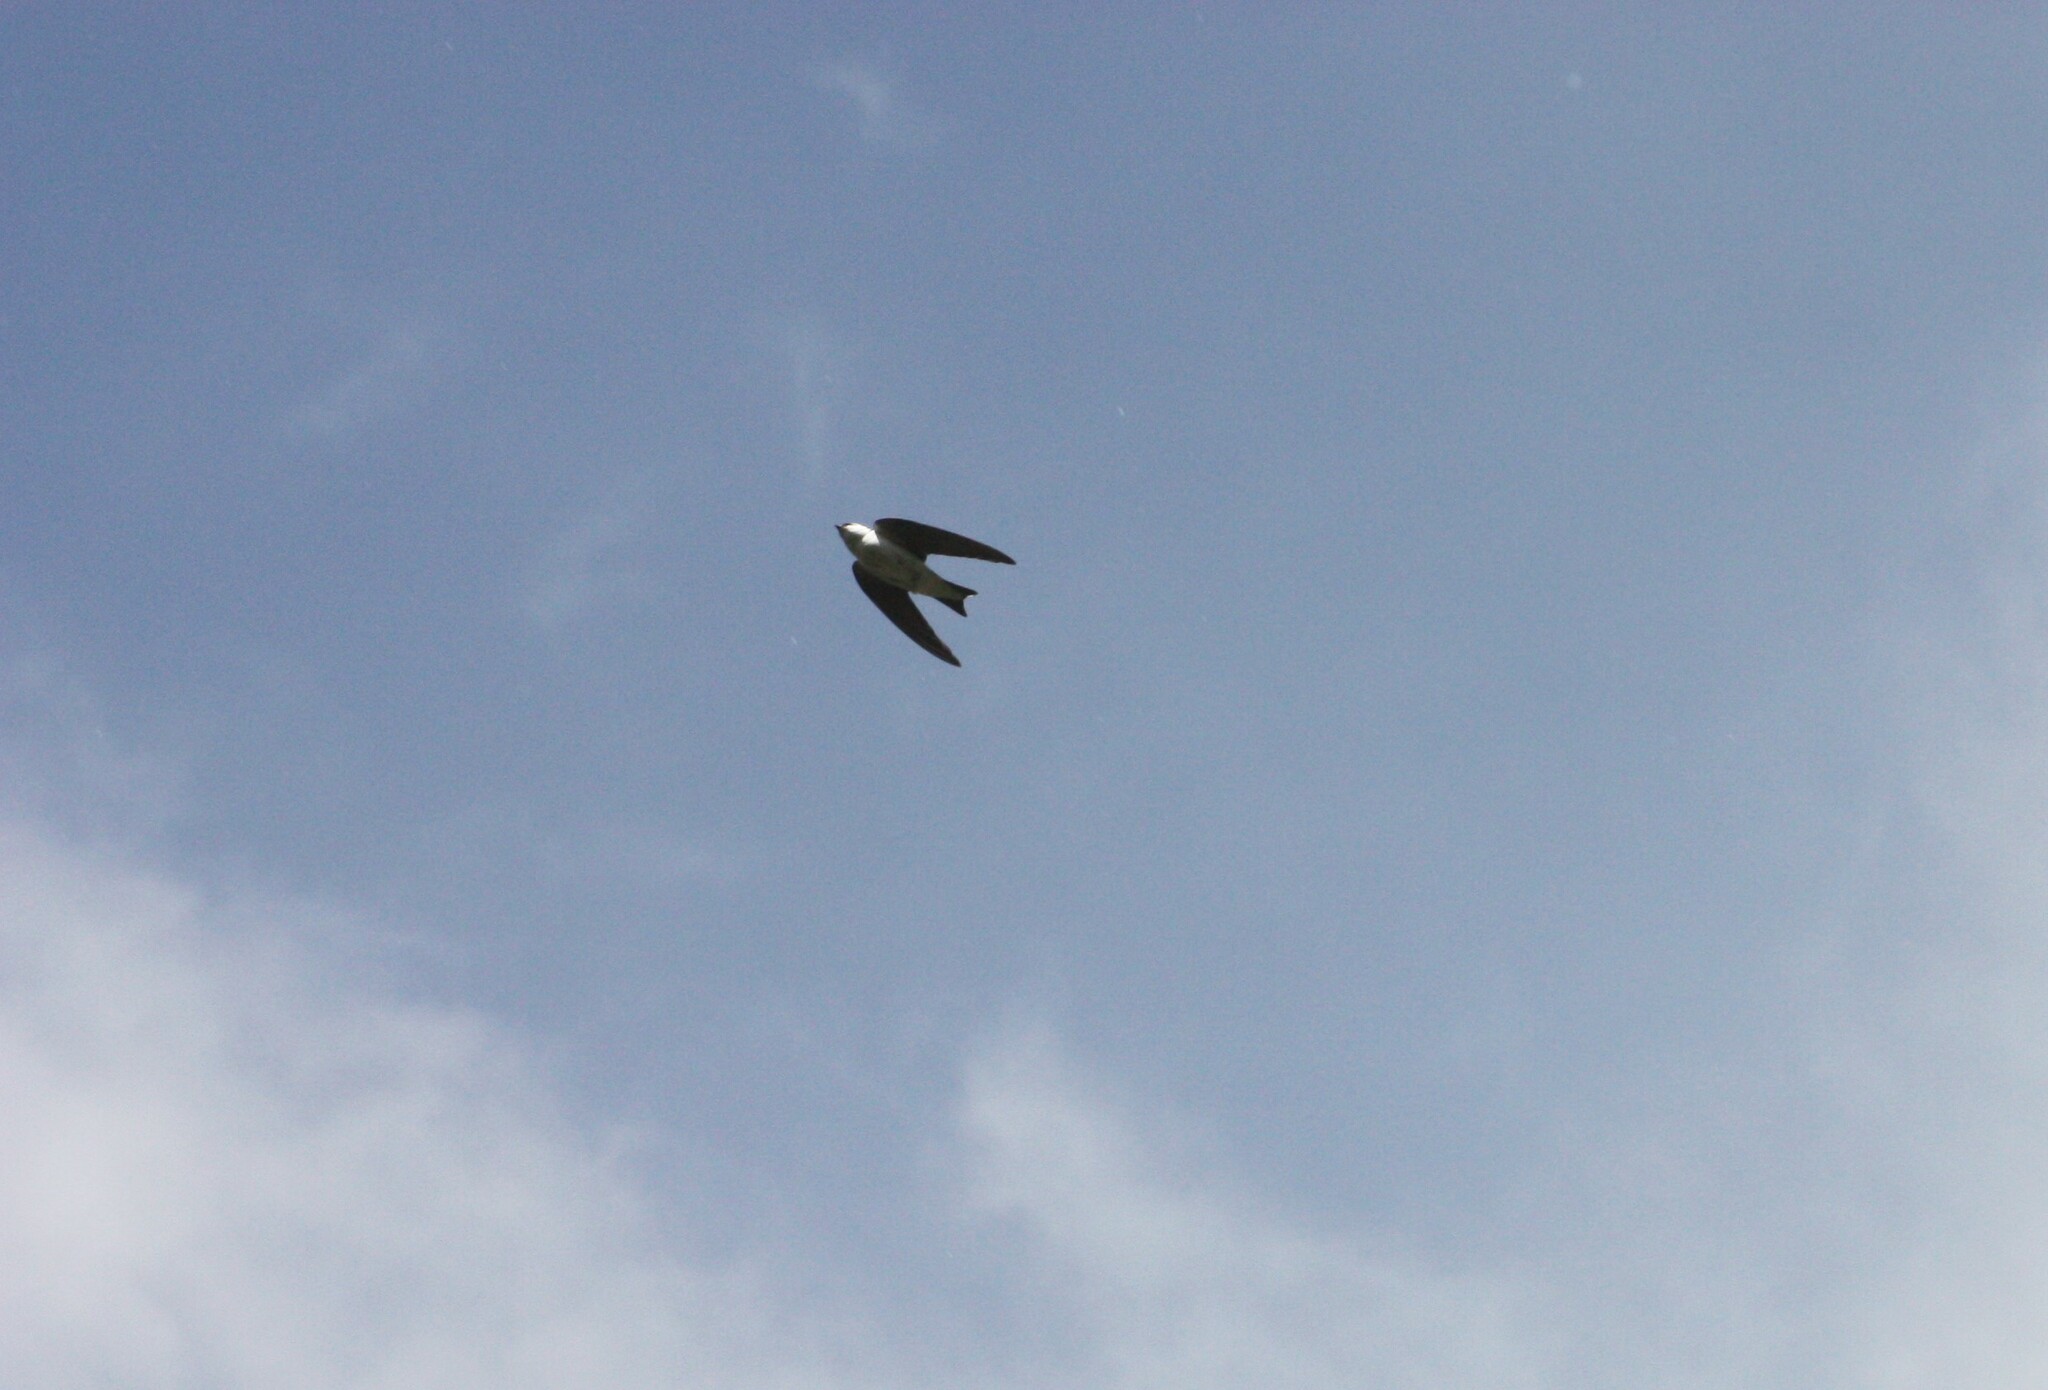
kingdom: Animalia
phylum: Chordata
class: Aves
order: Passeriformes
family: Hirundinidae
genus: Tachycineta
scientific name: Tachycineta thalassina
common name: Violet-green swallow
